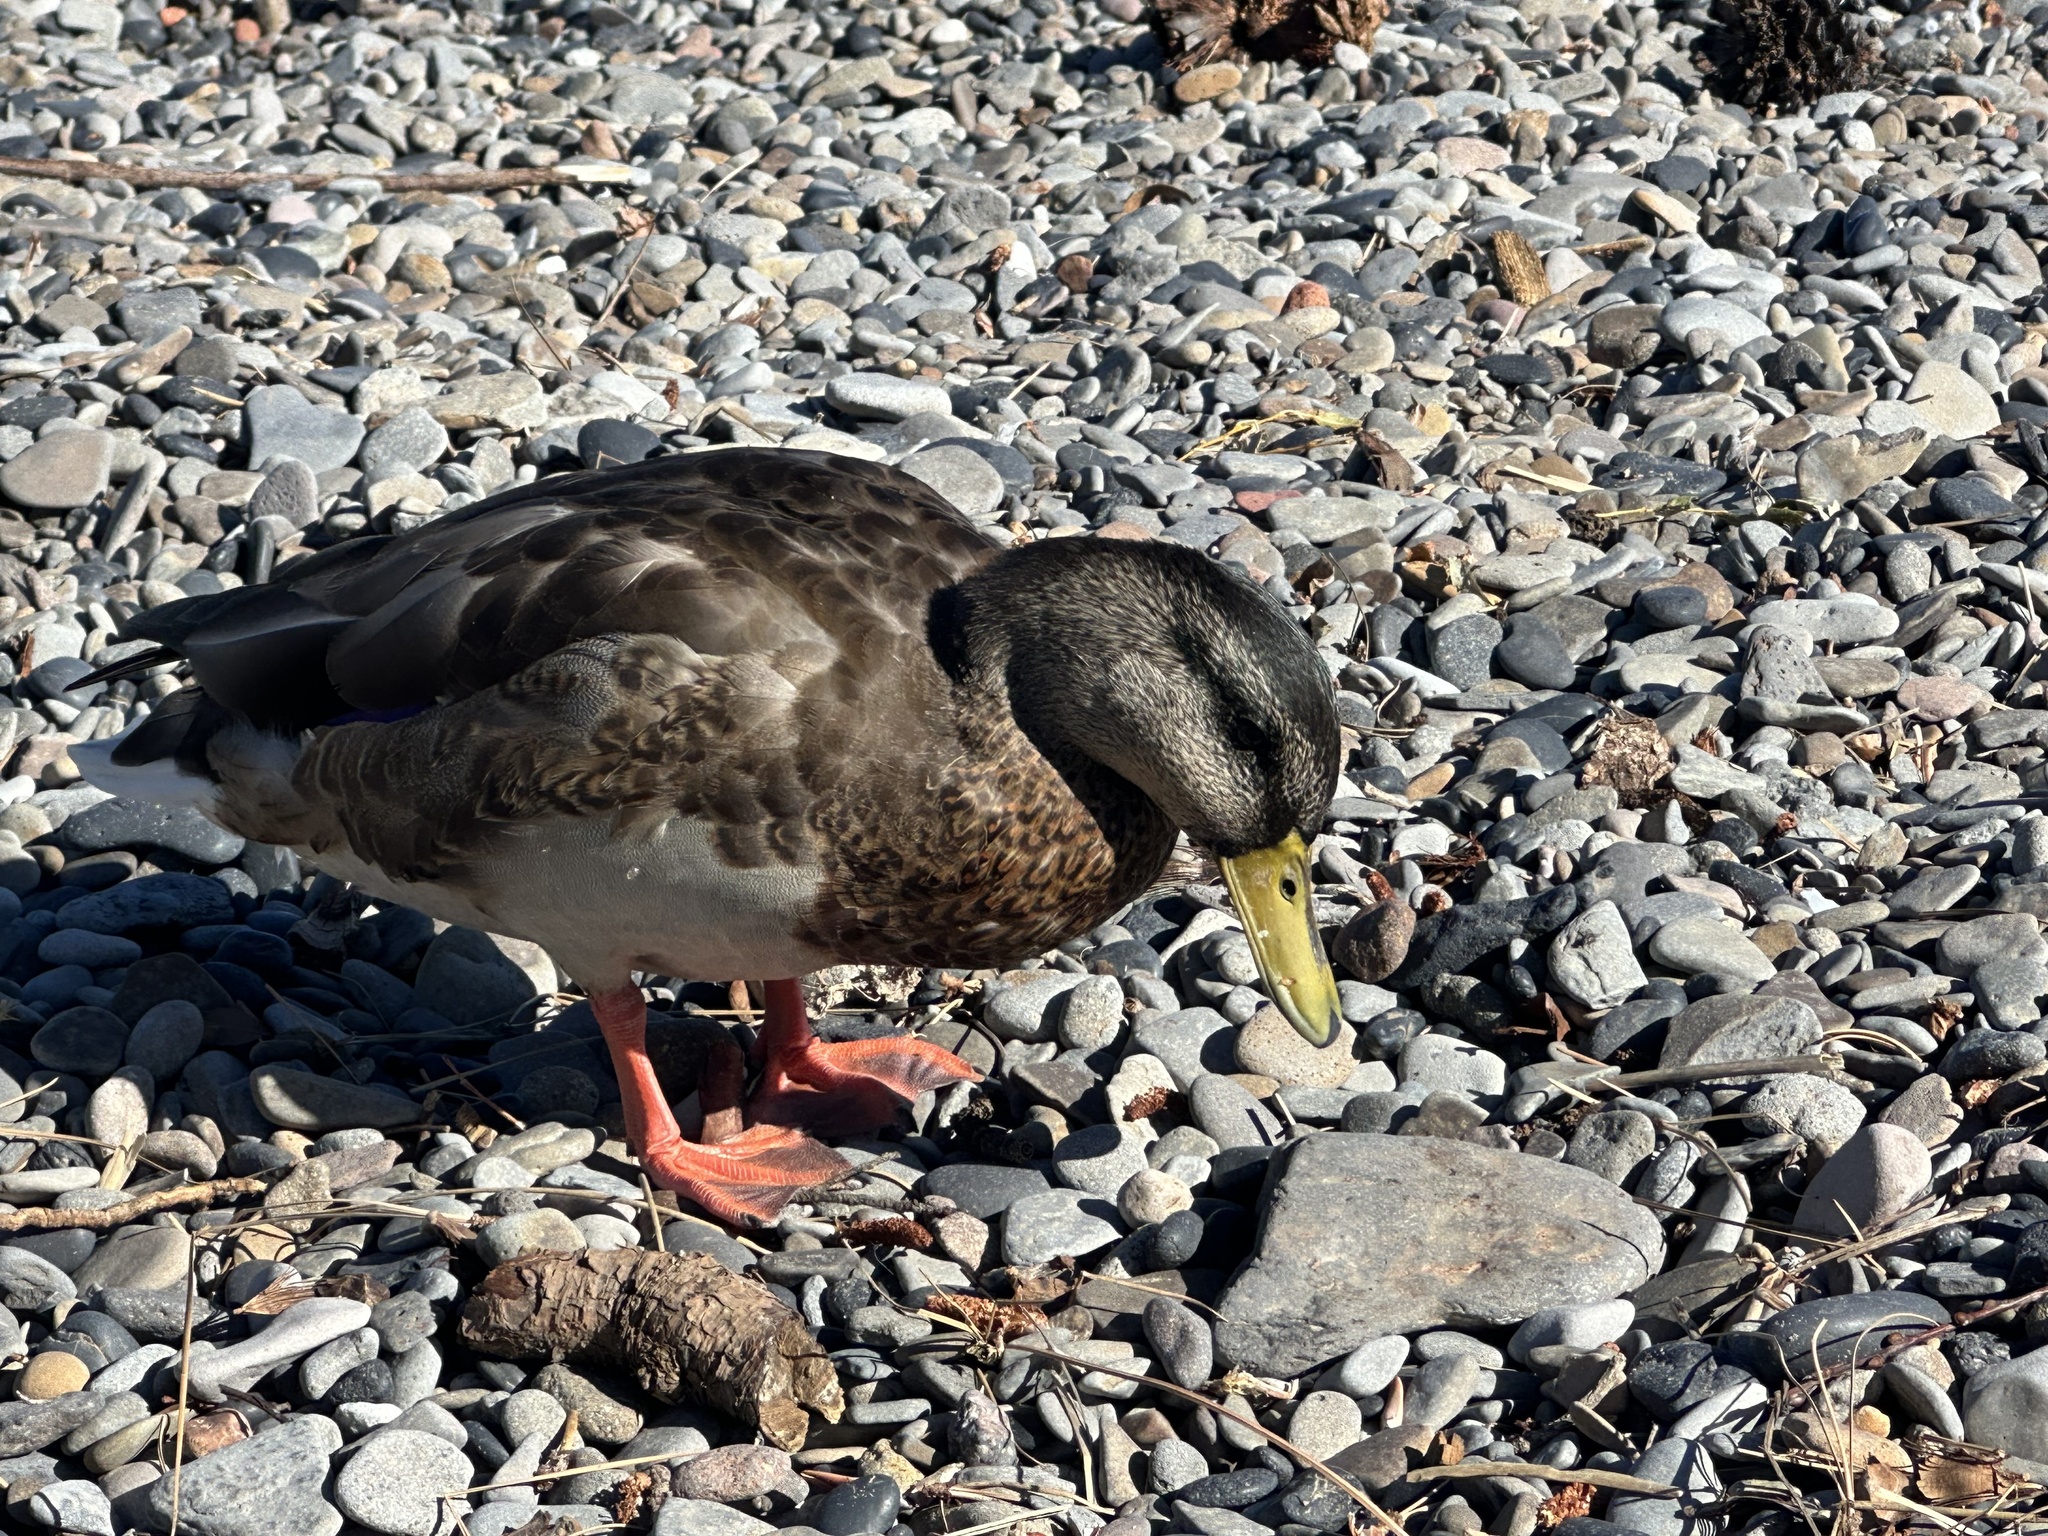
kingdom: Animalia
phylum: Chordata
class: Aves
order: Anseriformes
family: Anatidae
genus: Anas
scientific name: Anas platyrhynchos
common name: Mallard
